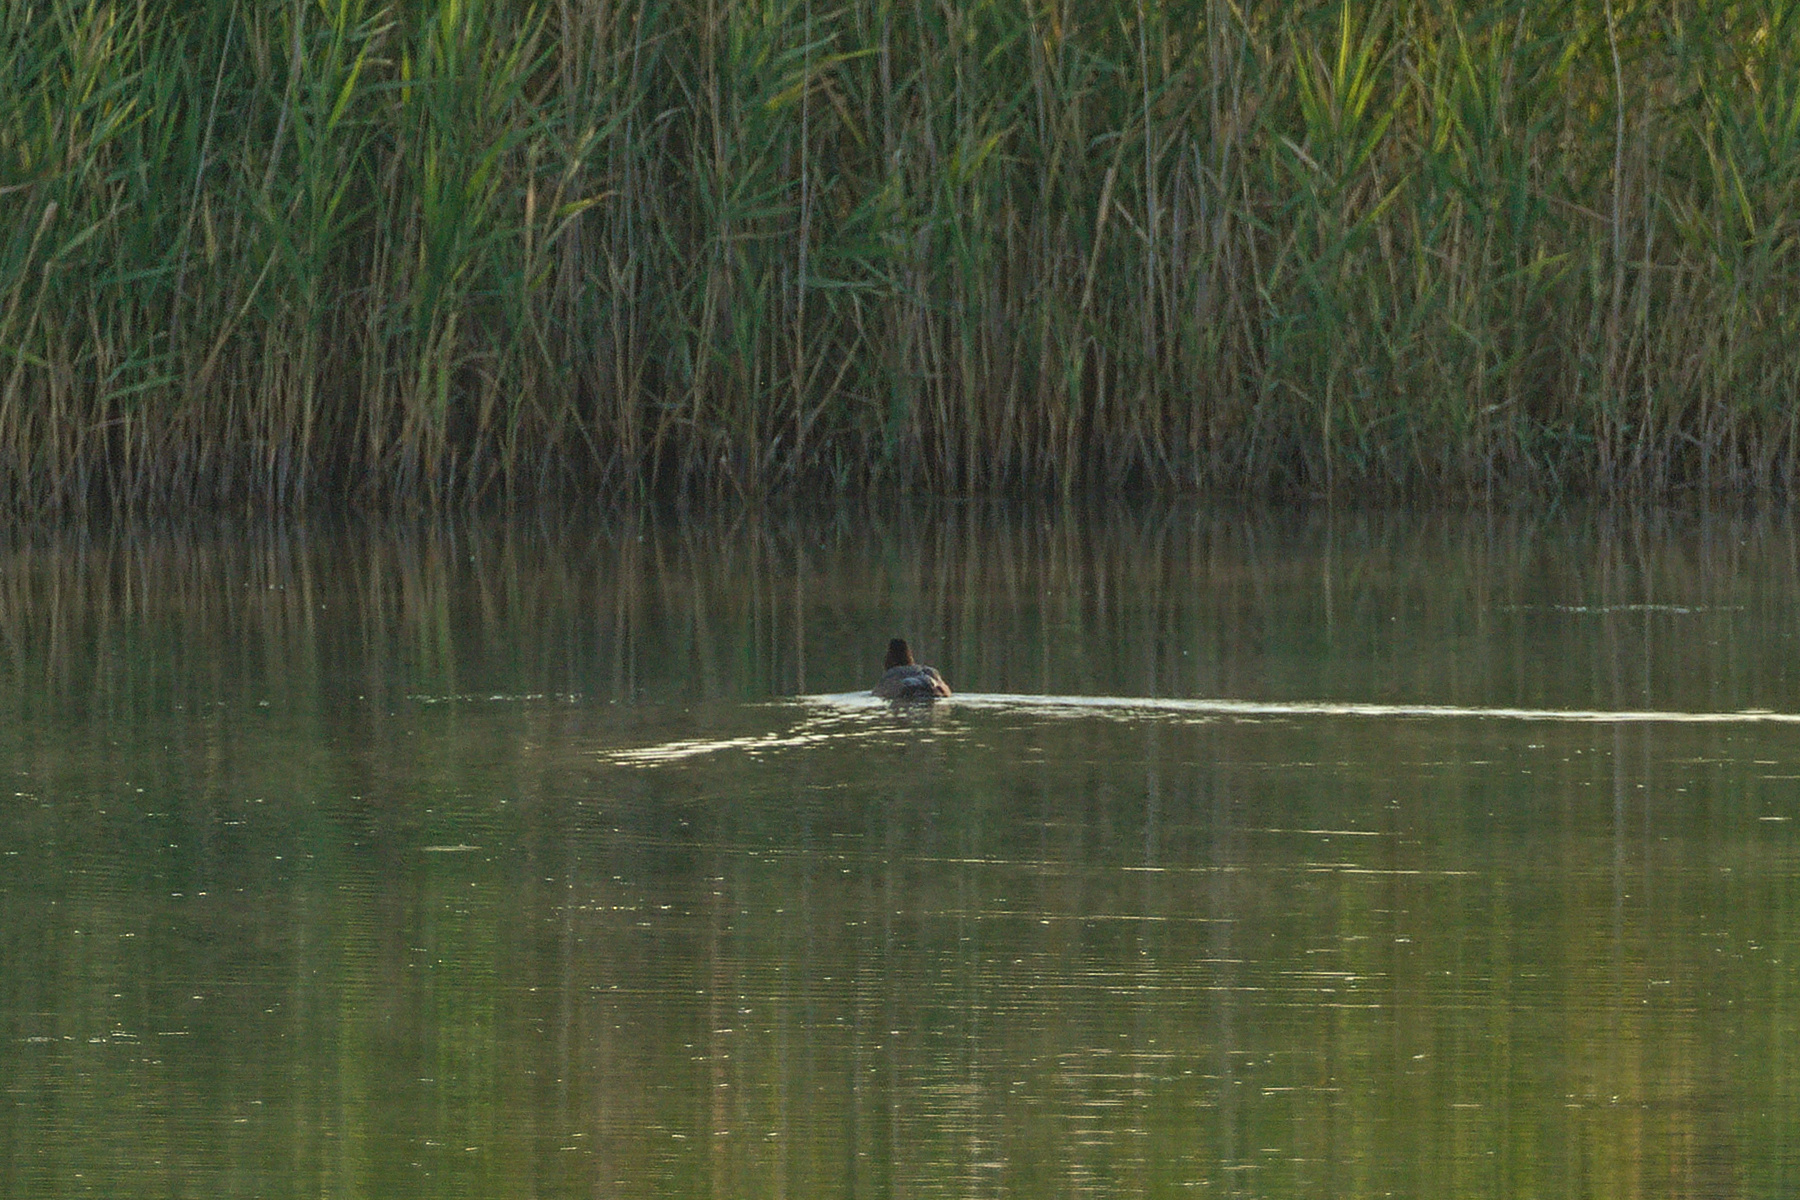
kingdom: Animalia
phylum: Chordata
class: Aves
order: Anseriformes
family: Anatidae
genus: Aythya
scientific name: Aythya ferina
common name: Common pochard
